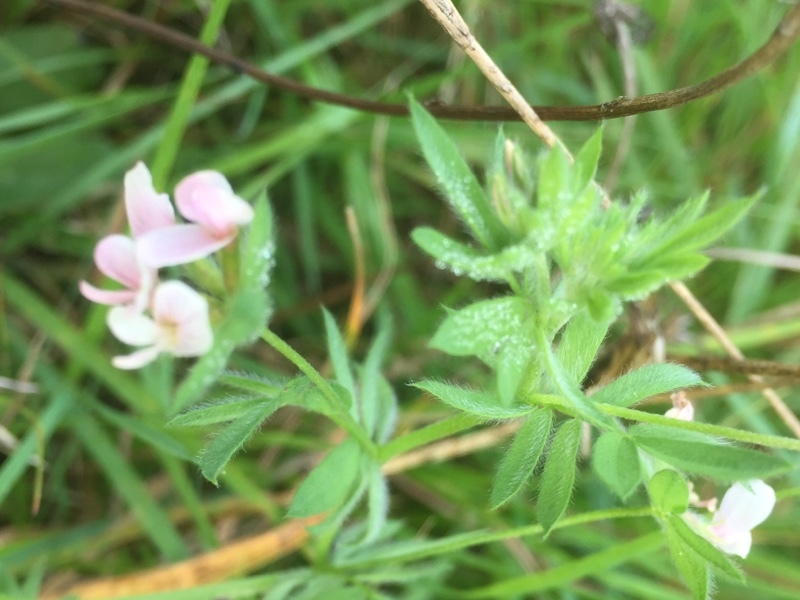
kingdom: Plantae
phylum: Tracheophyta
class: Magnoliopsida
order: Fabales
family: Fabaceae
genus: Ornithopus
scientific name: Ornithopus sativus
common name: Serradella
